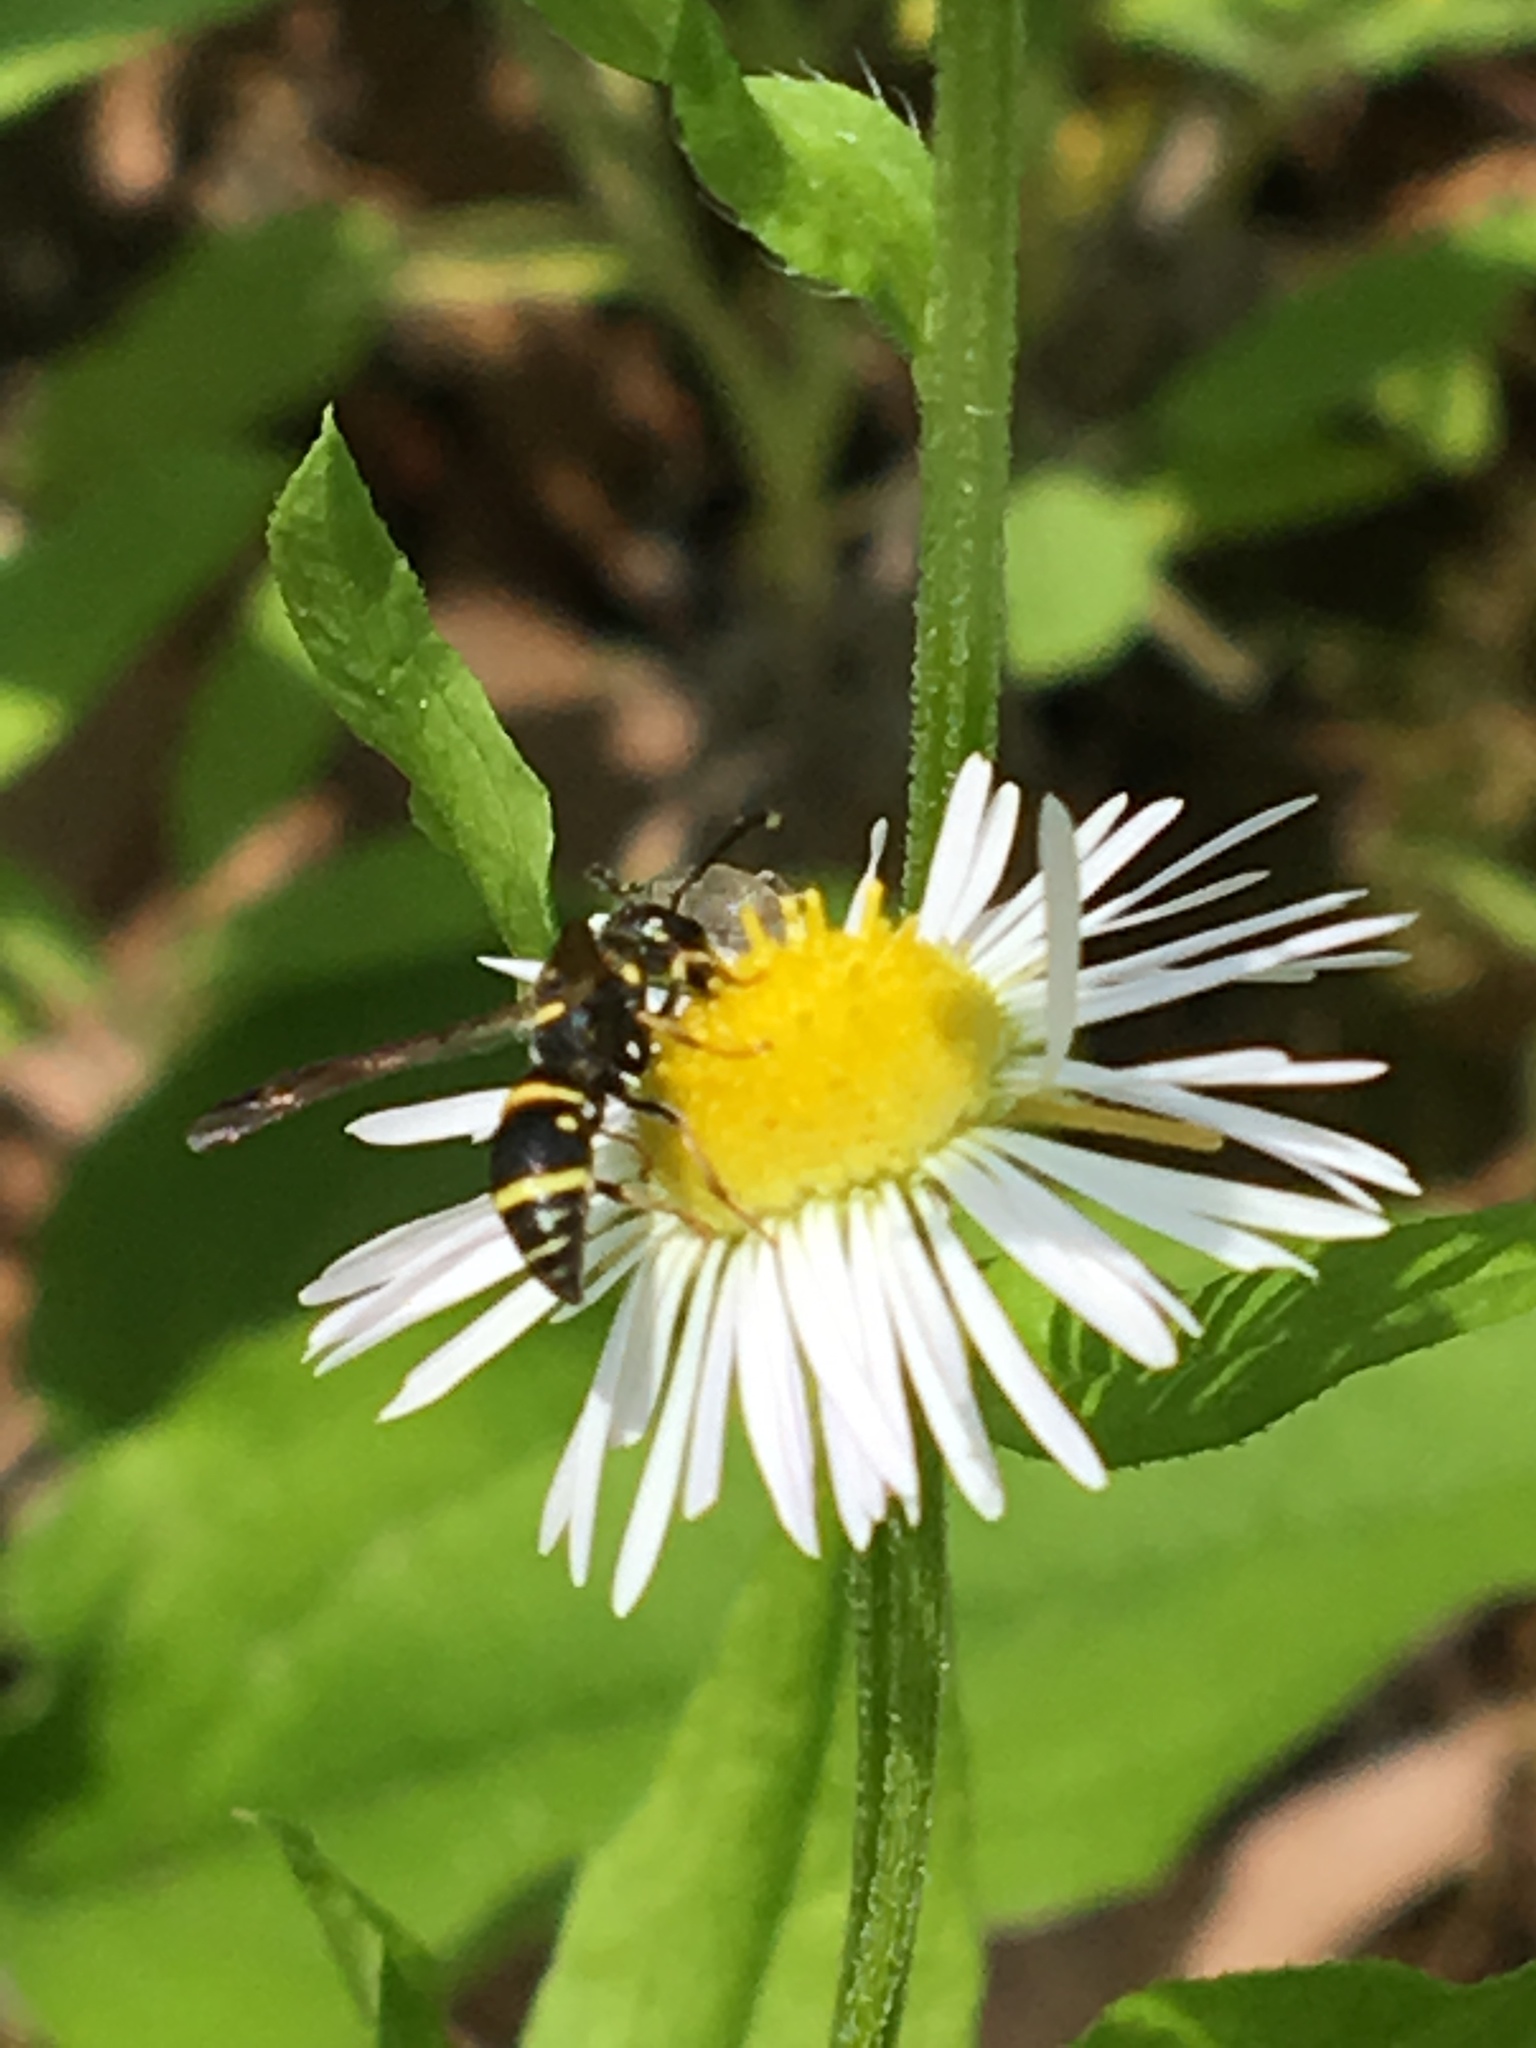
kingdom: Animalia
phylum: Arthropoda
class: Insecta
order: Hymenoptera
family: Eumenidae
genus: Parancistrocerus
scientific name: Parancistrocerus
